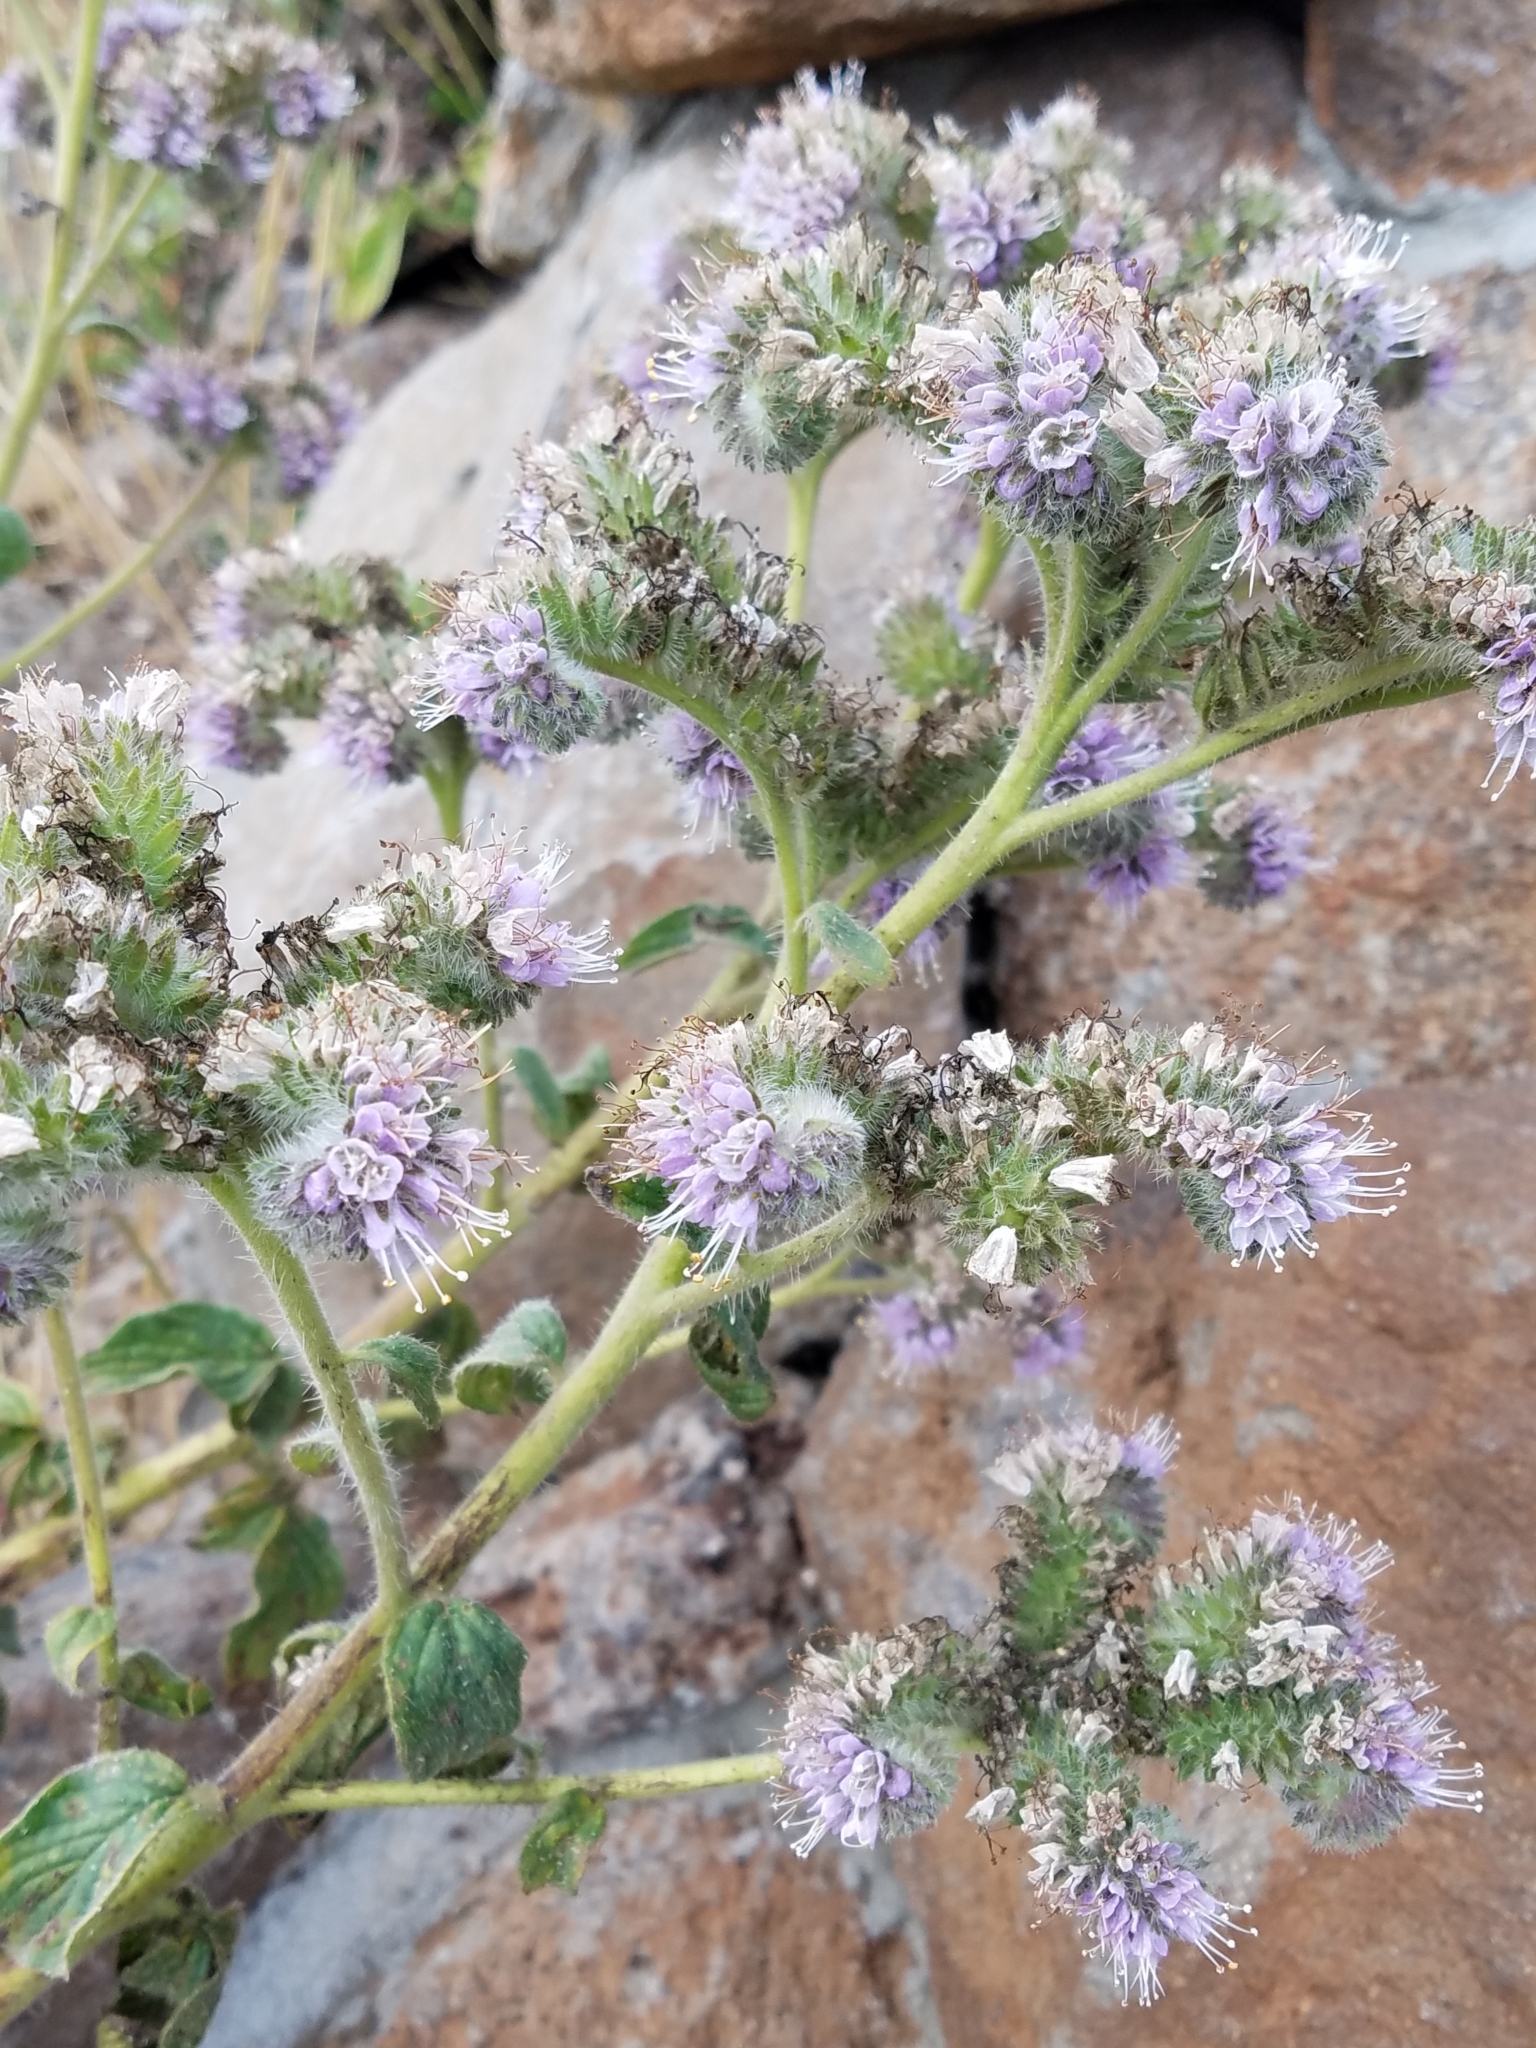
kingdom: Plantae
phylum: Tracheophyta
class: Magnoliopsida
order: Boraginales
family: Hydrophyllaceae
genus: Phacelia
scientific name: Phacelia californica
